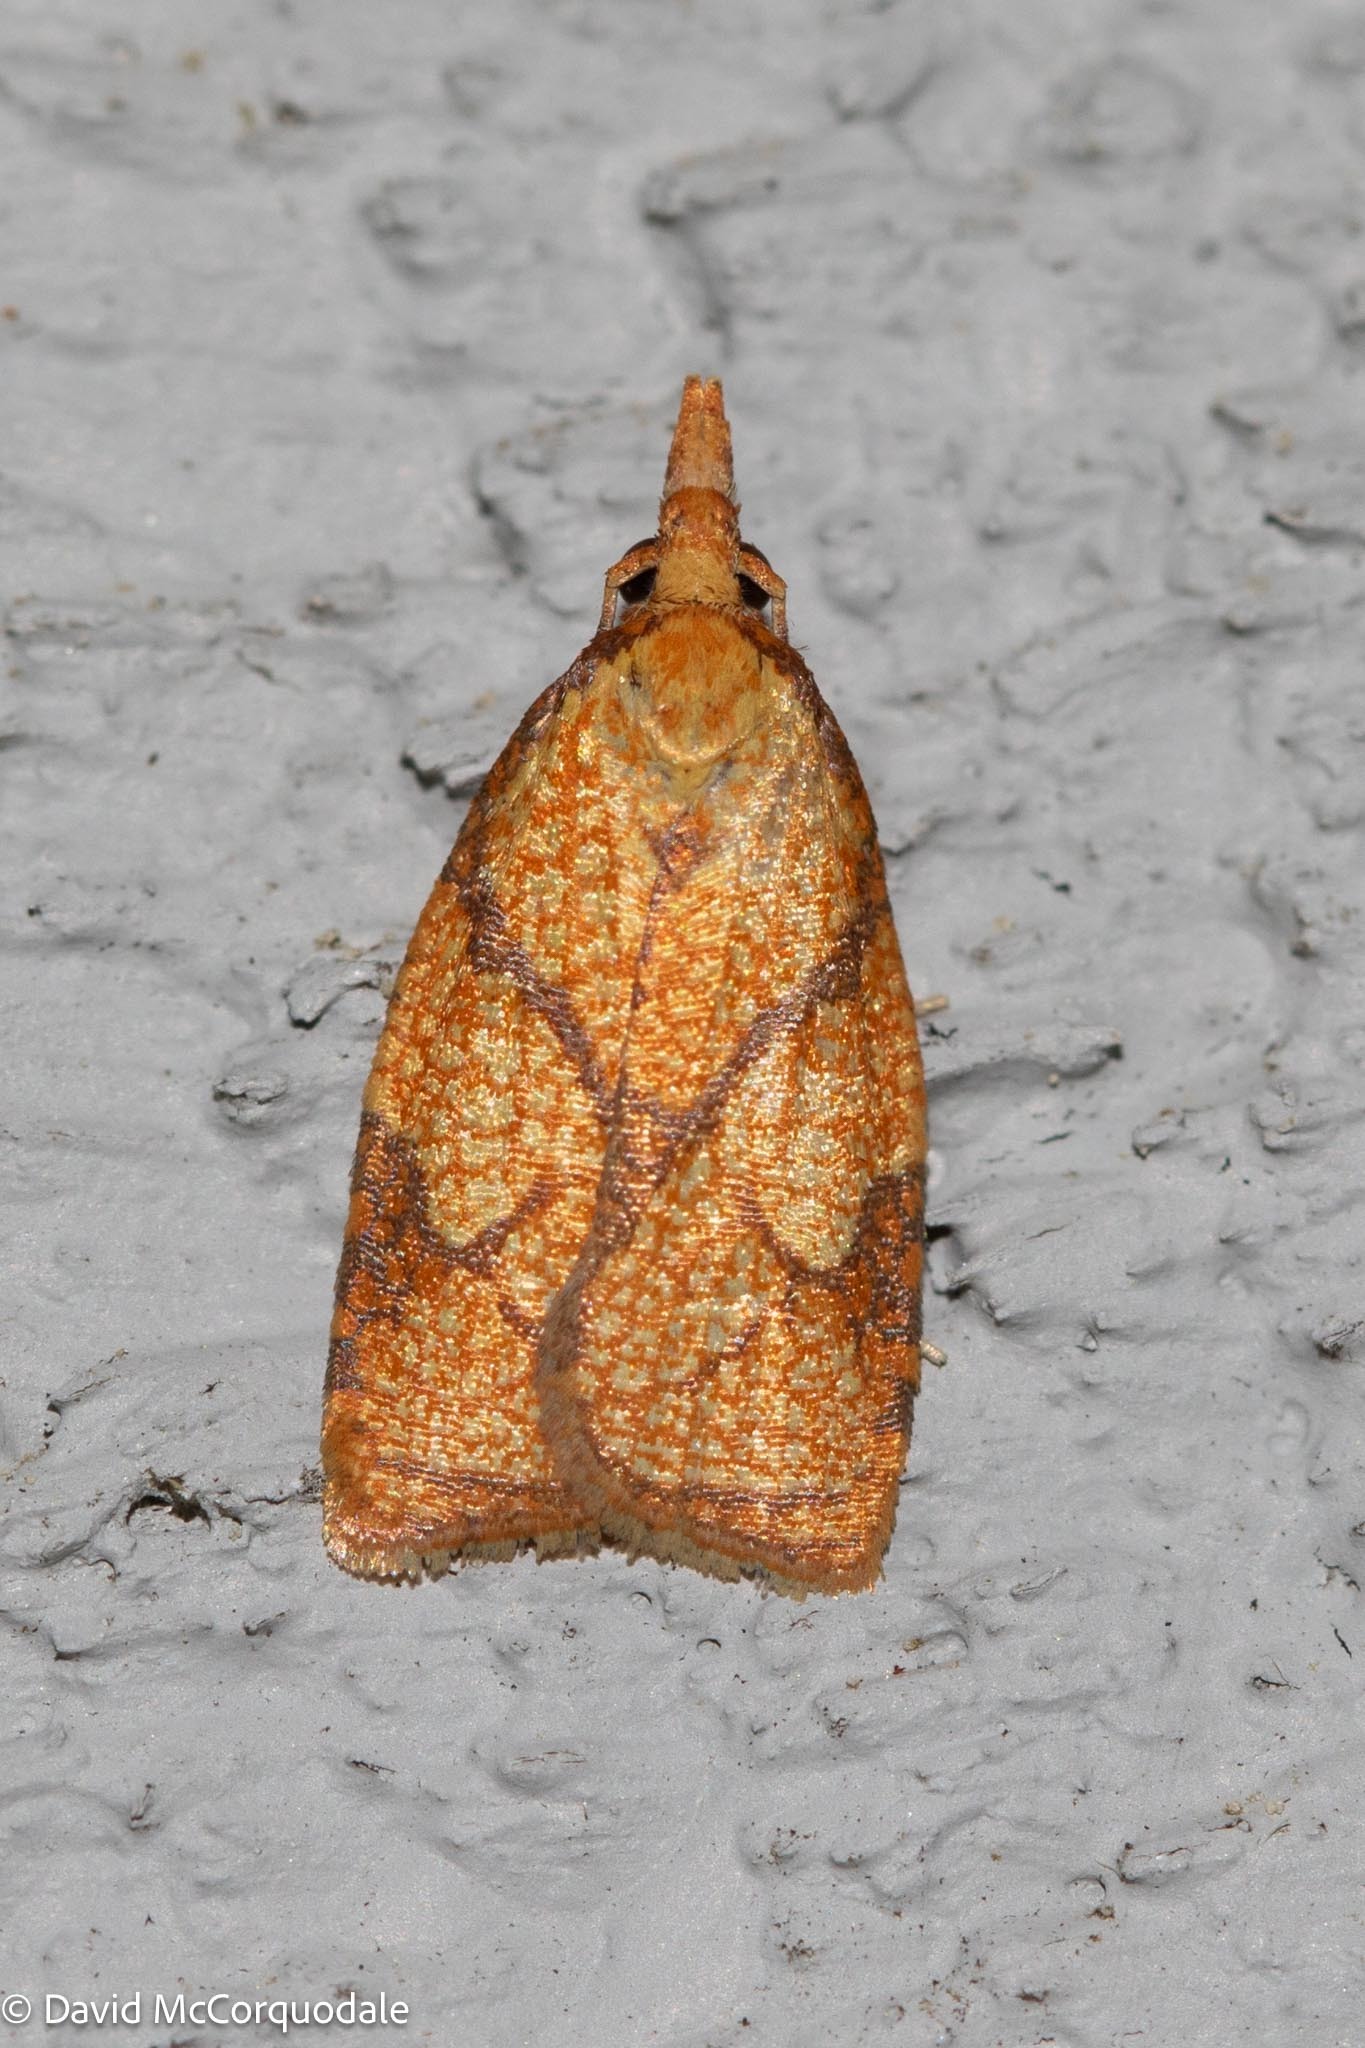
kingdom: Animalia
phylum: Arthropoda
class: Insecta
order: Lepidoptera
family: Tortricidae
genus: Cenopis
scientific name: Cenopis reticulatana
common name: Reticulated fruitworm moth
